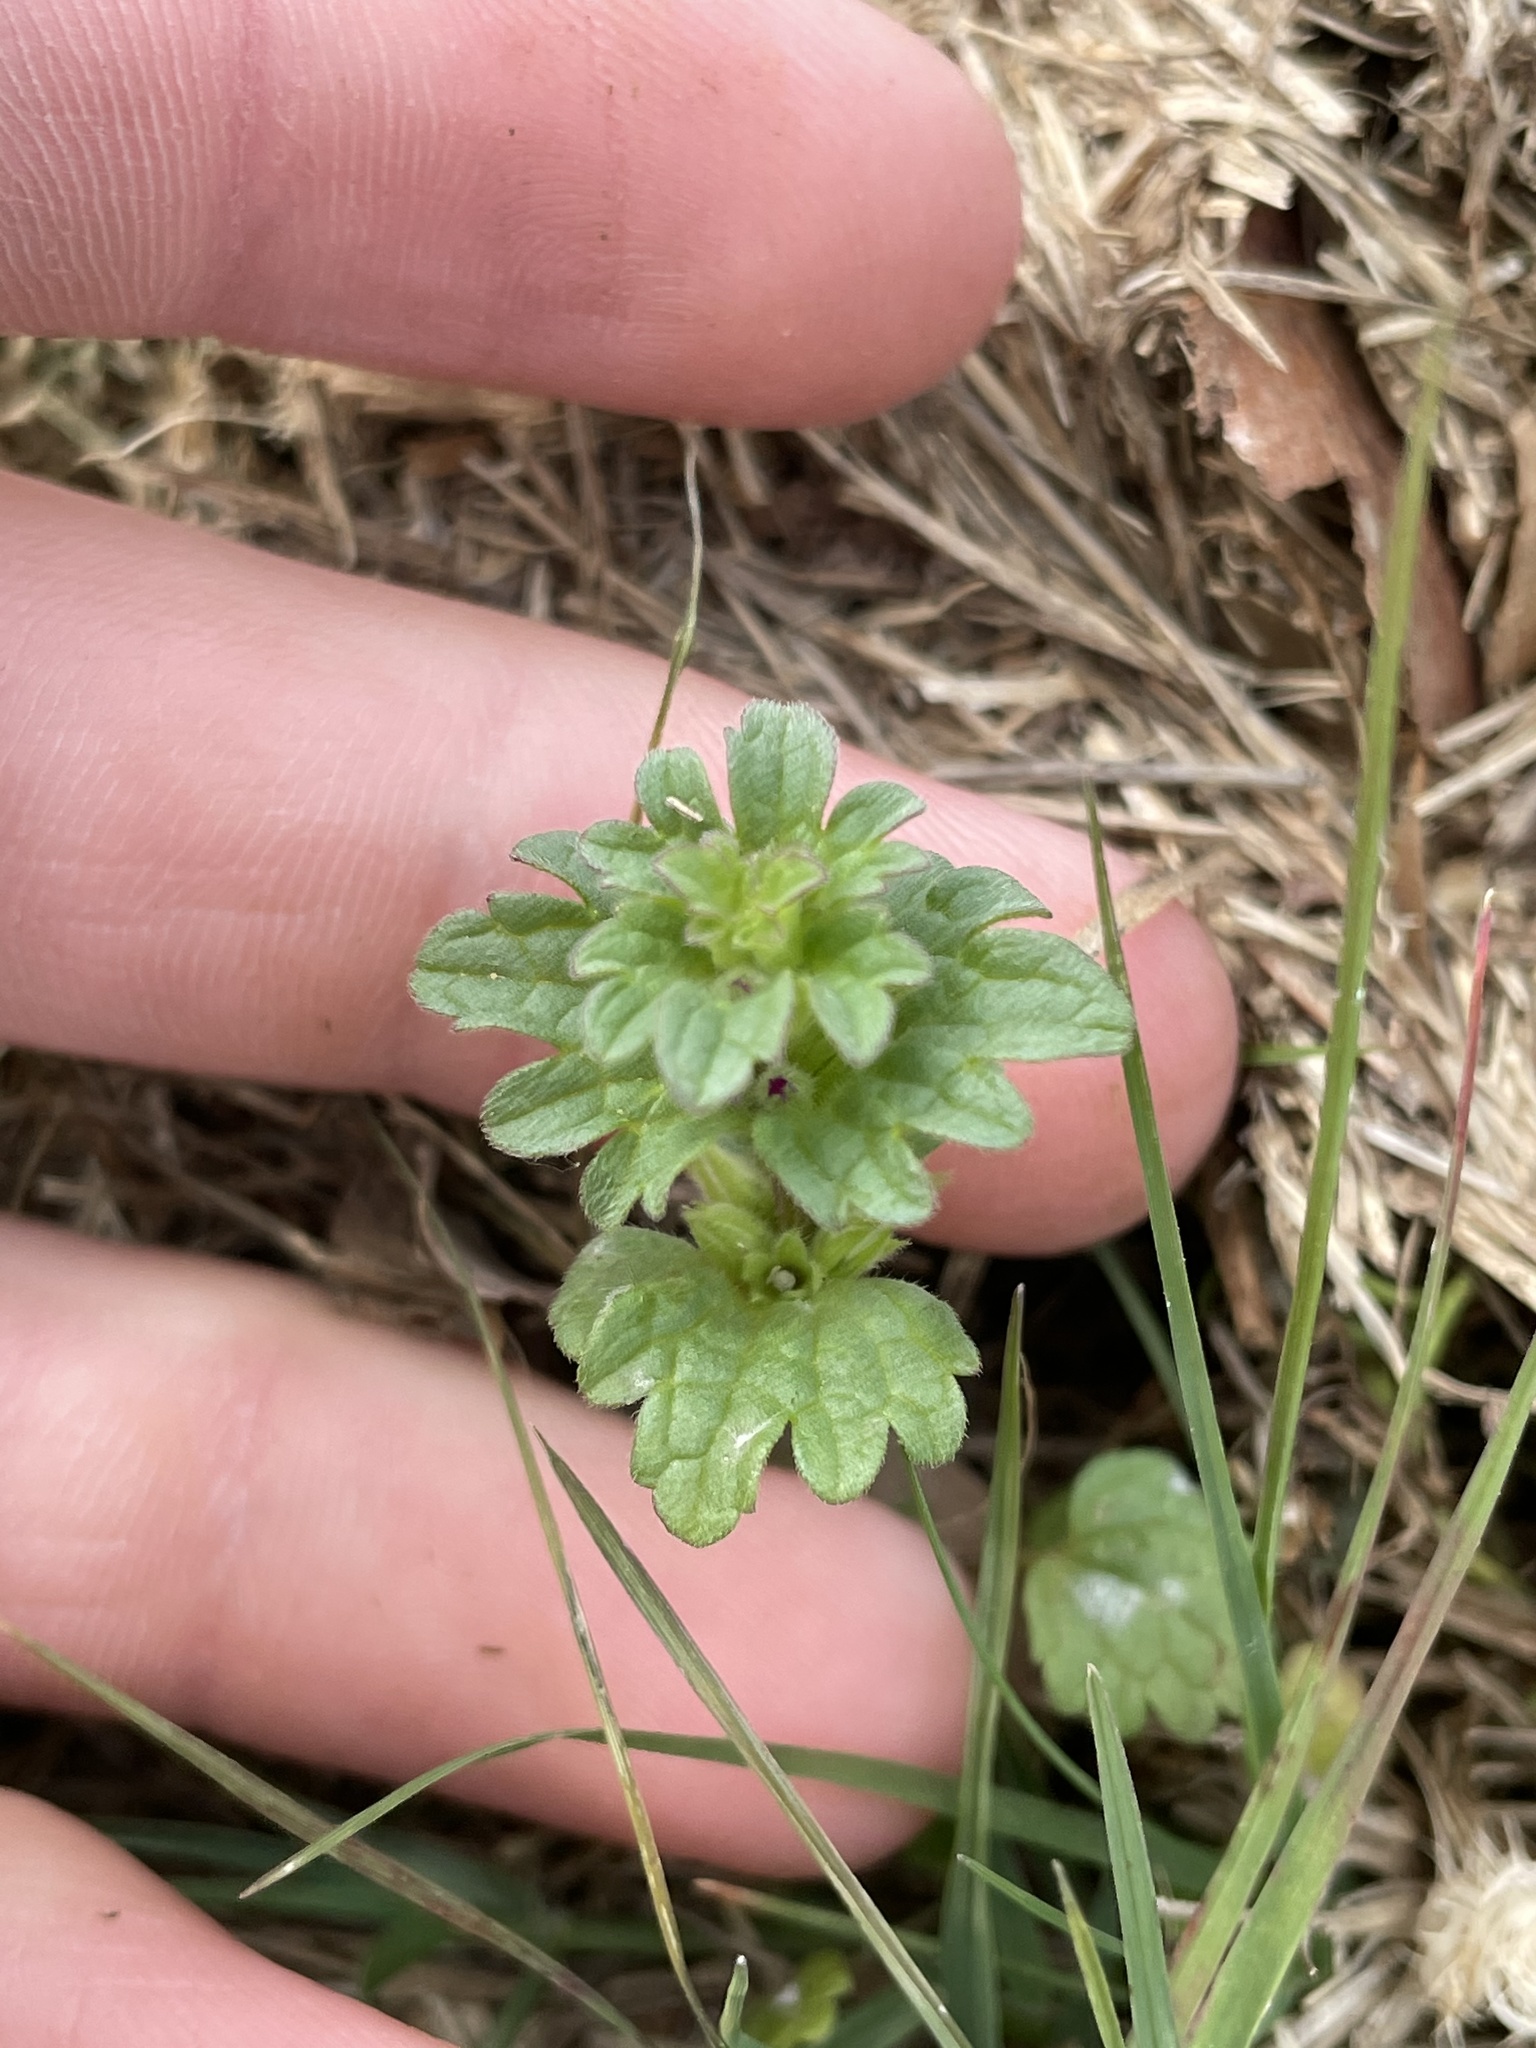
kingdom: Plantae
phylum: Tracheophyta
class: Magnoliopsida
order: Lamiales
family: Lamiaceae
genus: Lamium
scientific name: Lamium amplexicaule
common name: Henbit dead-nettle
